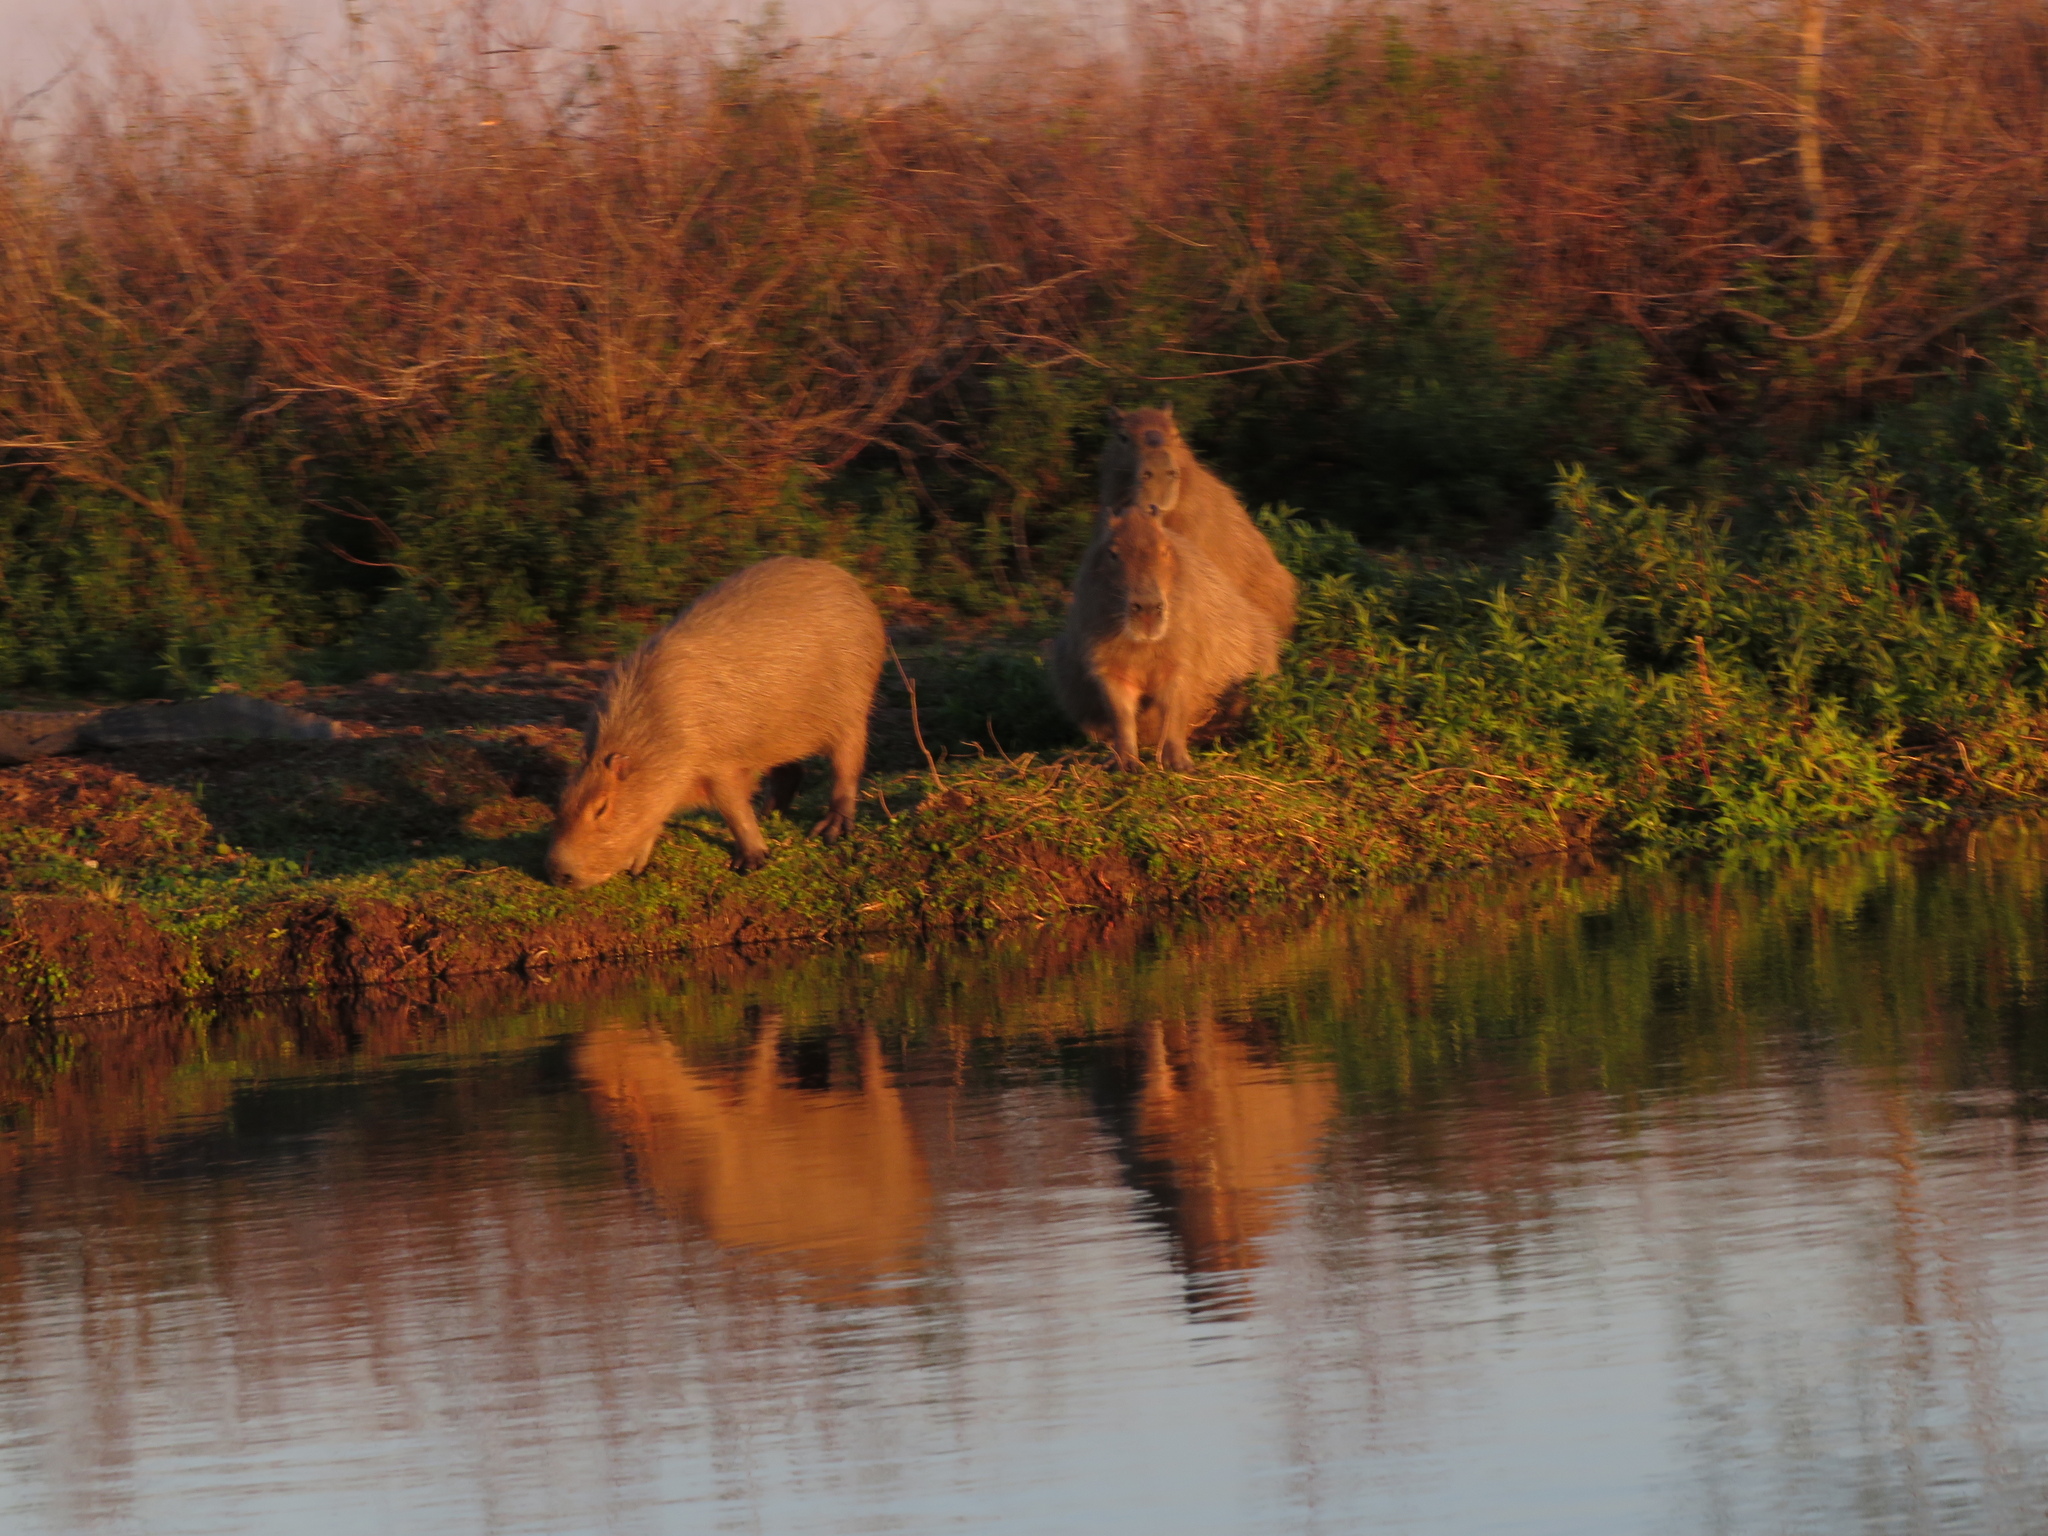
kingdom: Animalia
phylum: Chordata
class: Mammalia
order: Rodentia
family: Caviidae
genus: Hydrochoerus
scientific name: Hydrochoerus hydrochaeris
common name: Capybara
